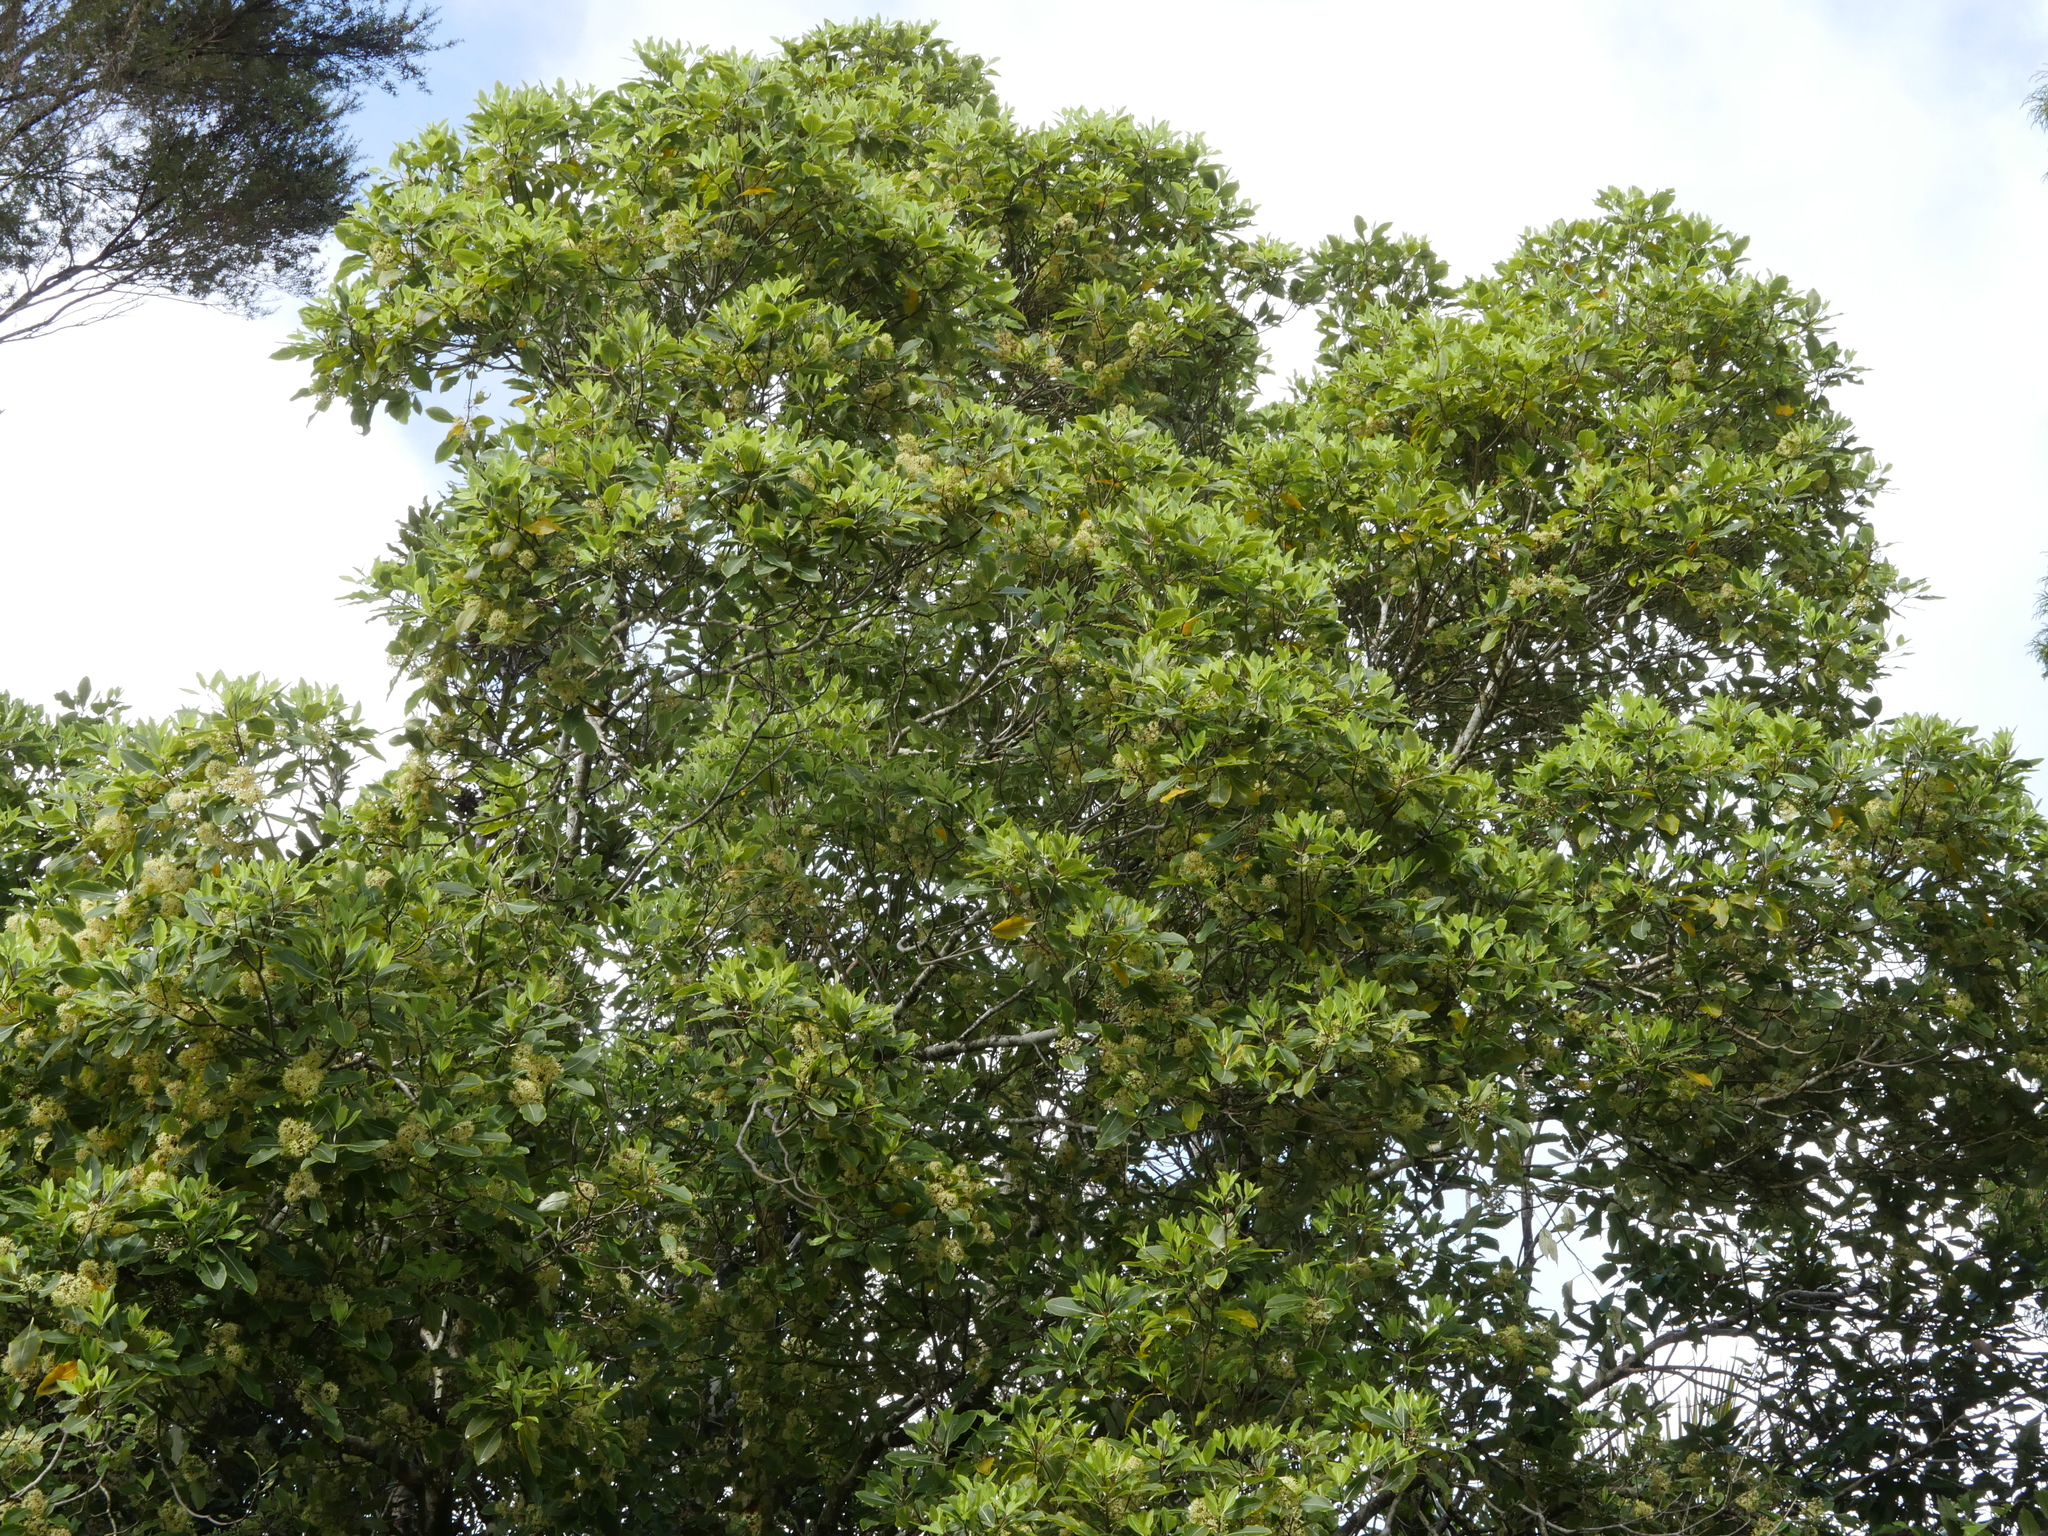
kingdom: Plantae
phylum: Tracheophyta
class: Magnoliopsida
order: Apiales
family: Pittosporaceae
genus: Pittosporum
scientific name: Pittosporum eugenioides
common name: Lemonwood
